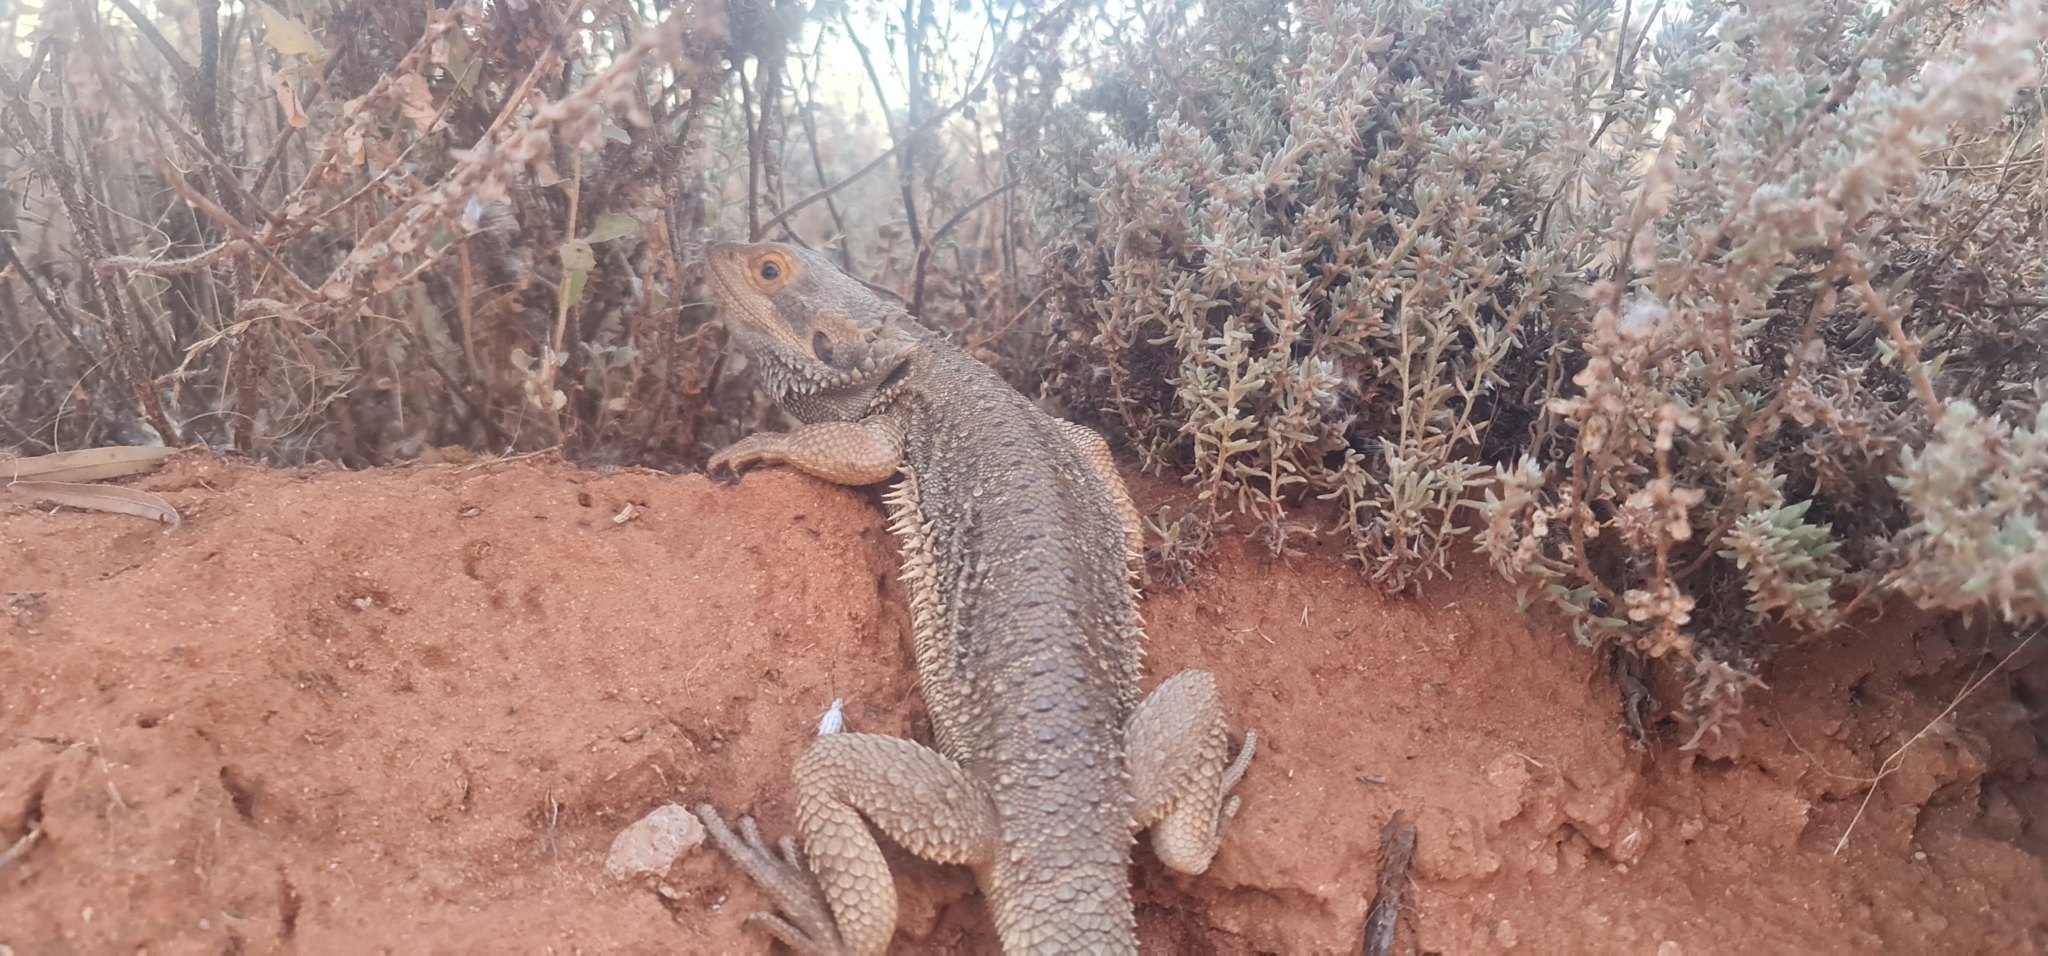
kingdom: Animalia
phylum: Chordata
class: Squamata
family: Agamidae
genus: Pogona
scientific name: Pogona vitticeps
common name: Central bearded dragon
